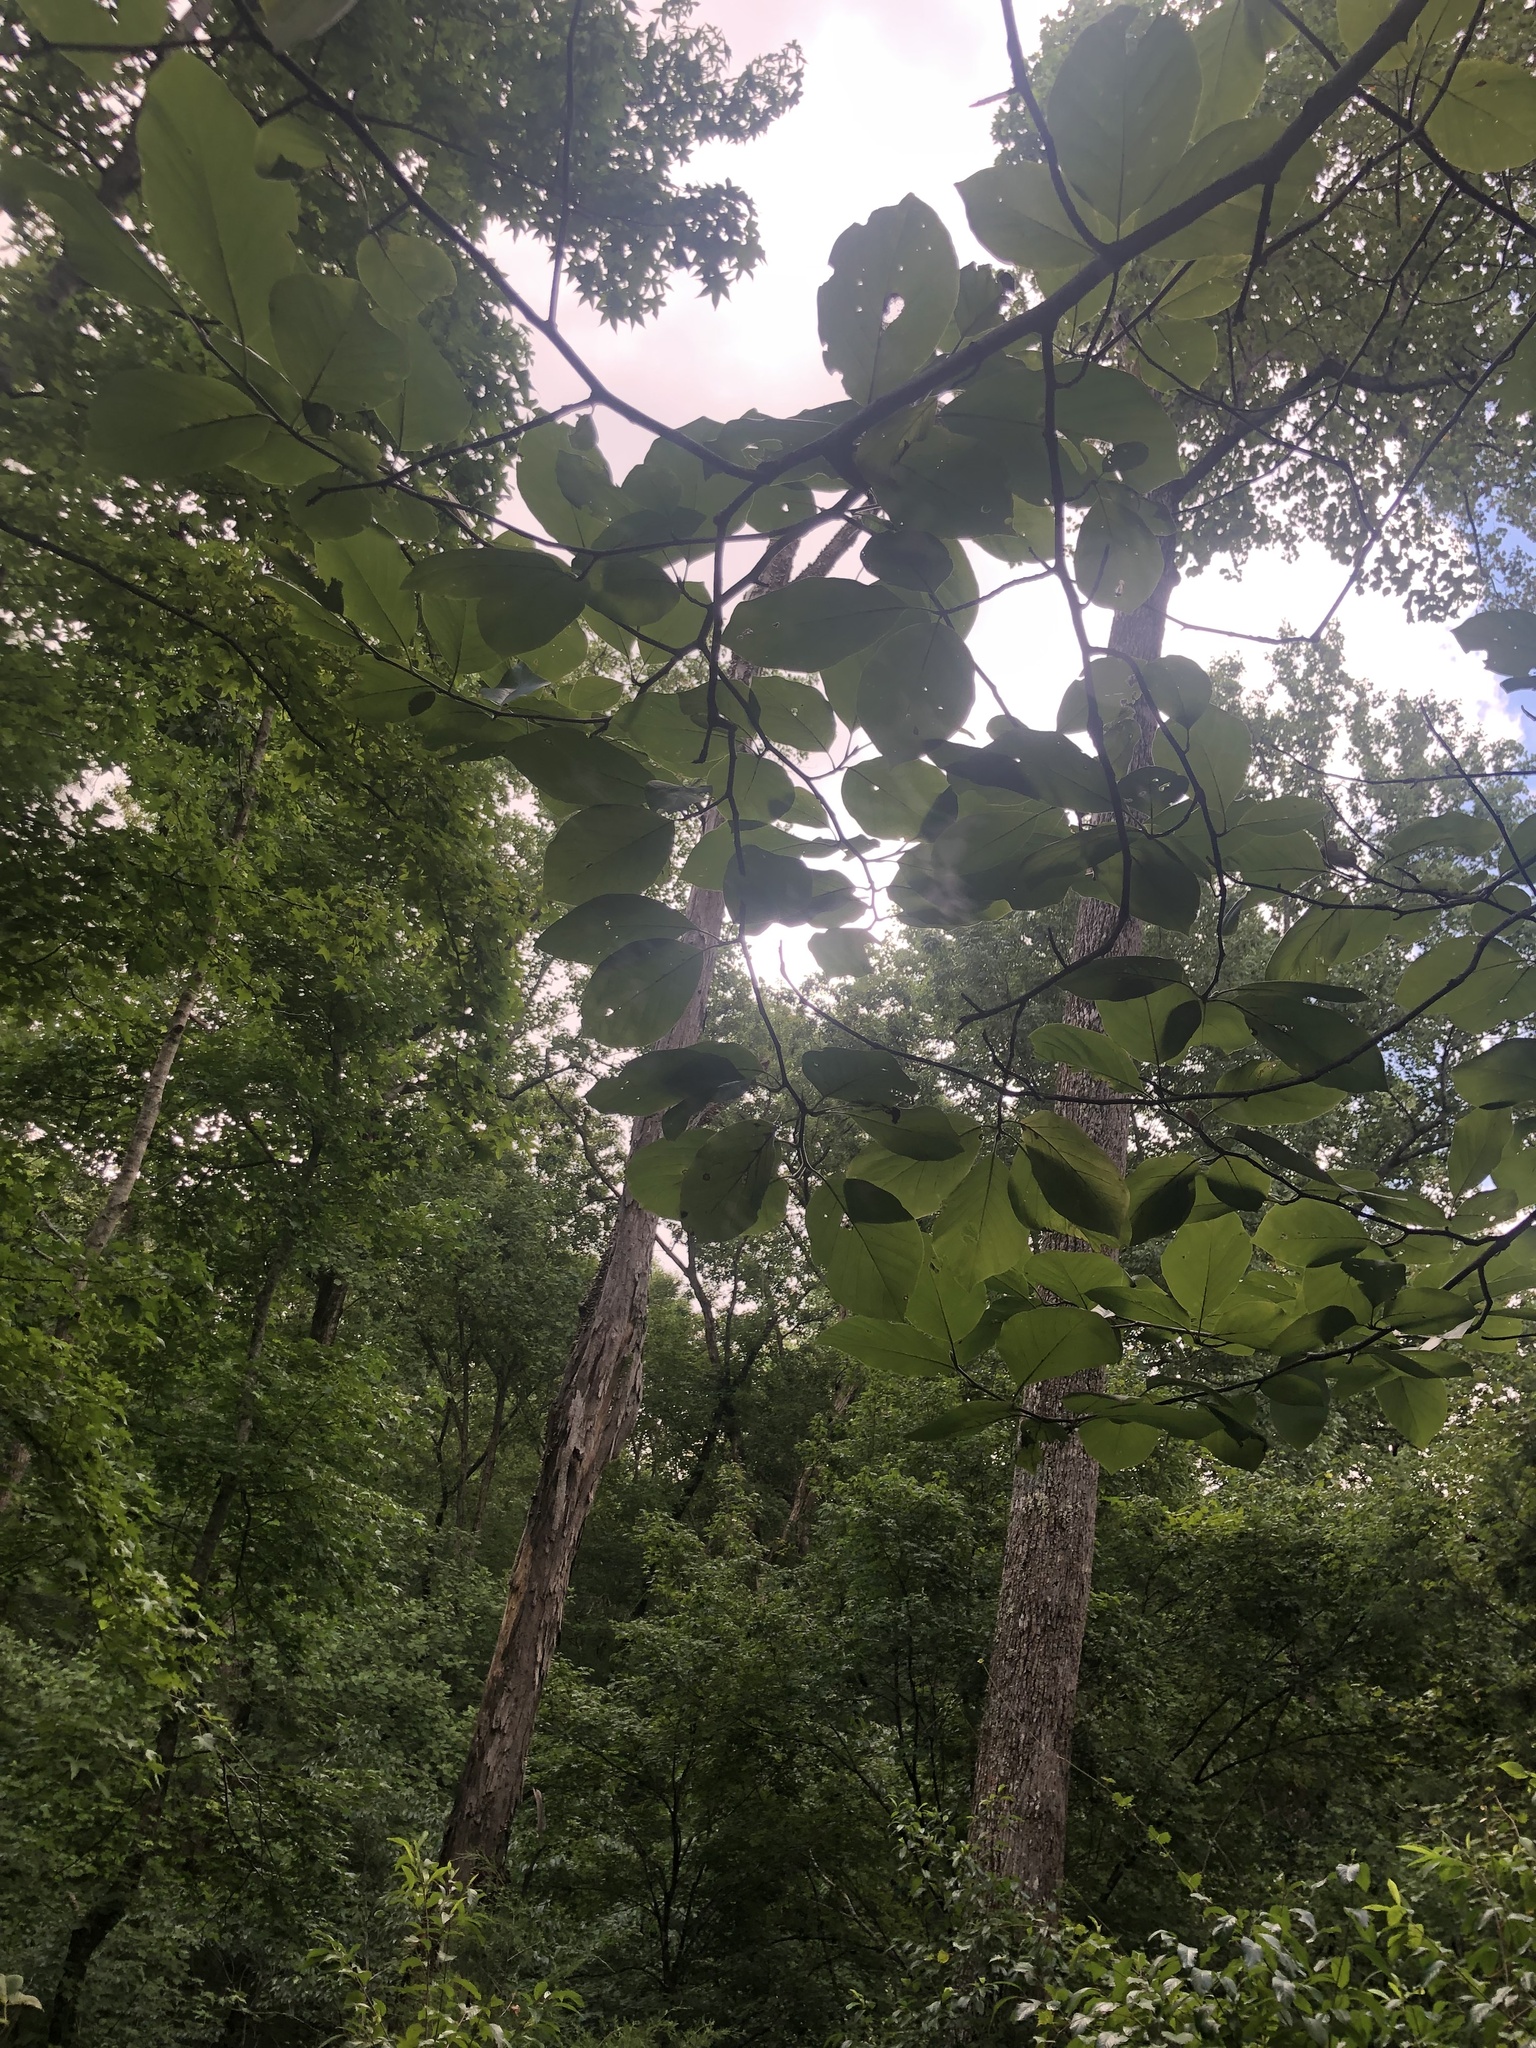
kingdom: Plantae
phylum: Tracheophyta
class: Magnoliopsida
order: Magnoliales
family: Magnoliaceae
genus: Magnolia
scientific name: Magnolia acuminata
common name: Cucumber magnolia
